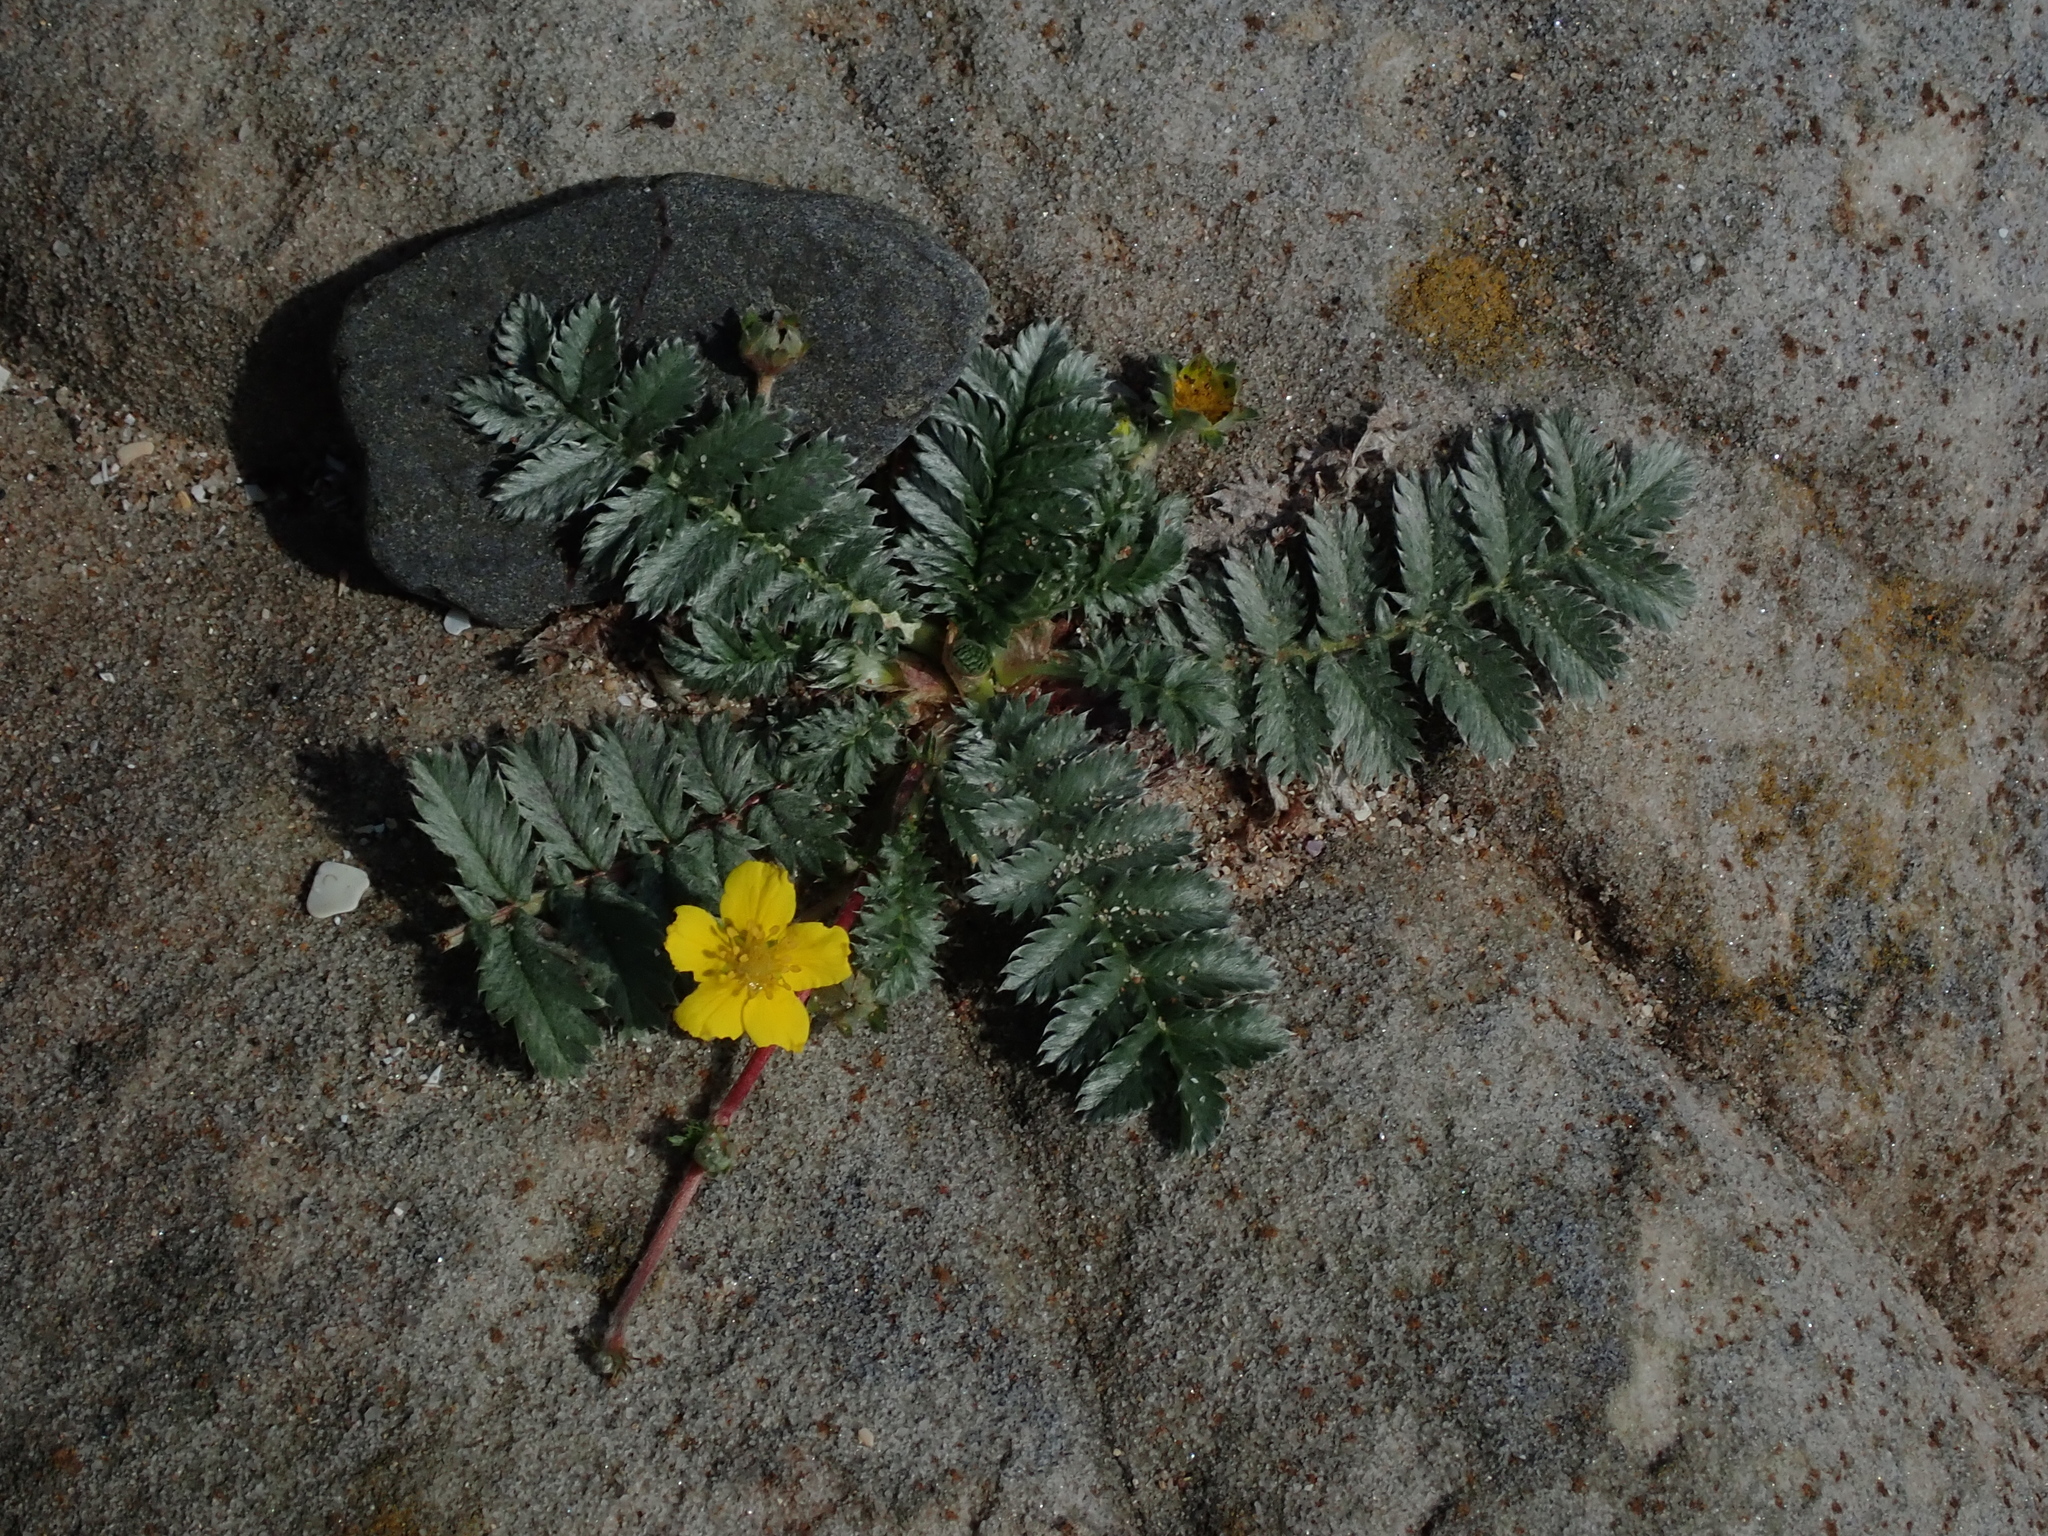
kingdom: Plantae
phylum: Tracheophyta
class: Magnoliopsida
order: Rosales
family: Rosaceae
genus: Argentina
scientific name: Argentina anserina
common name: Common silverweed
